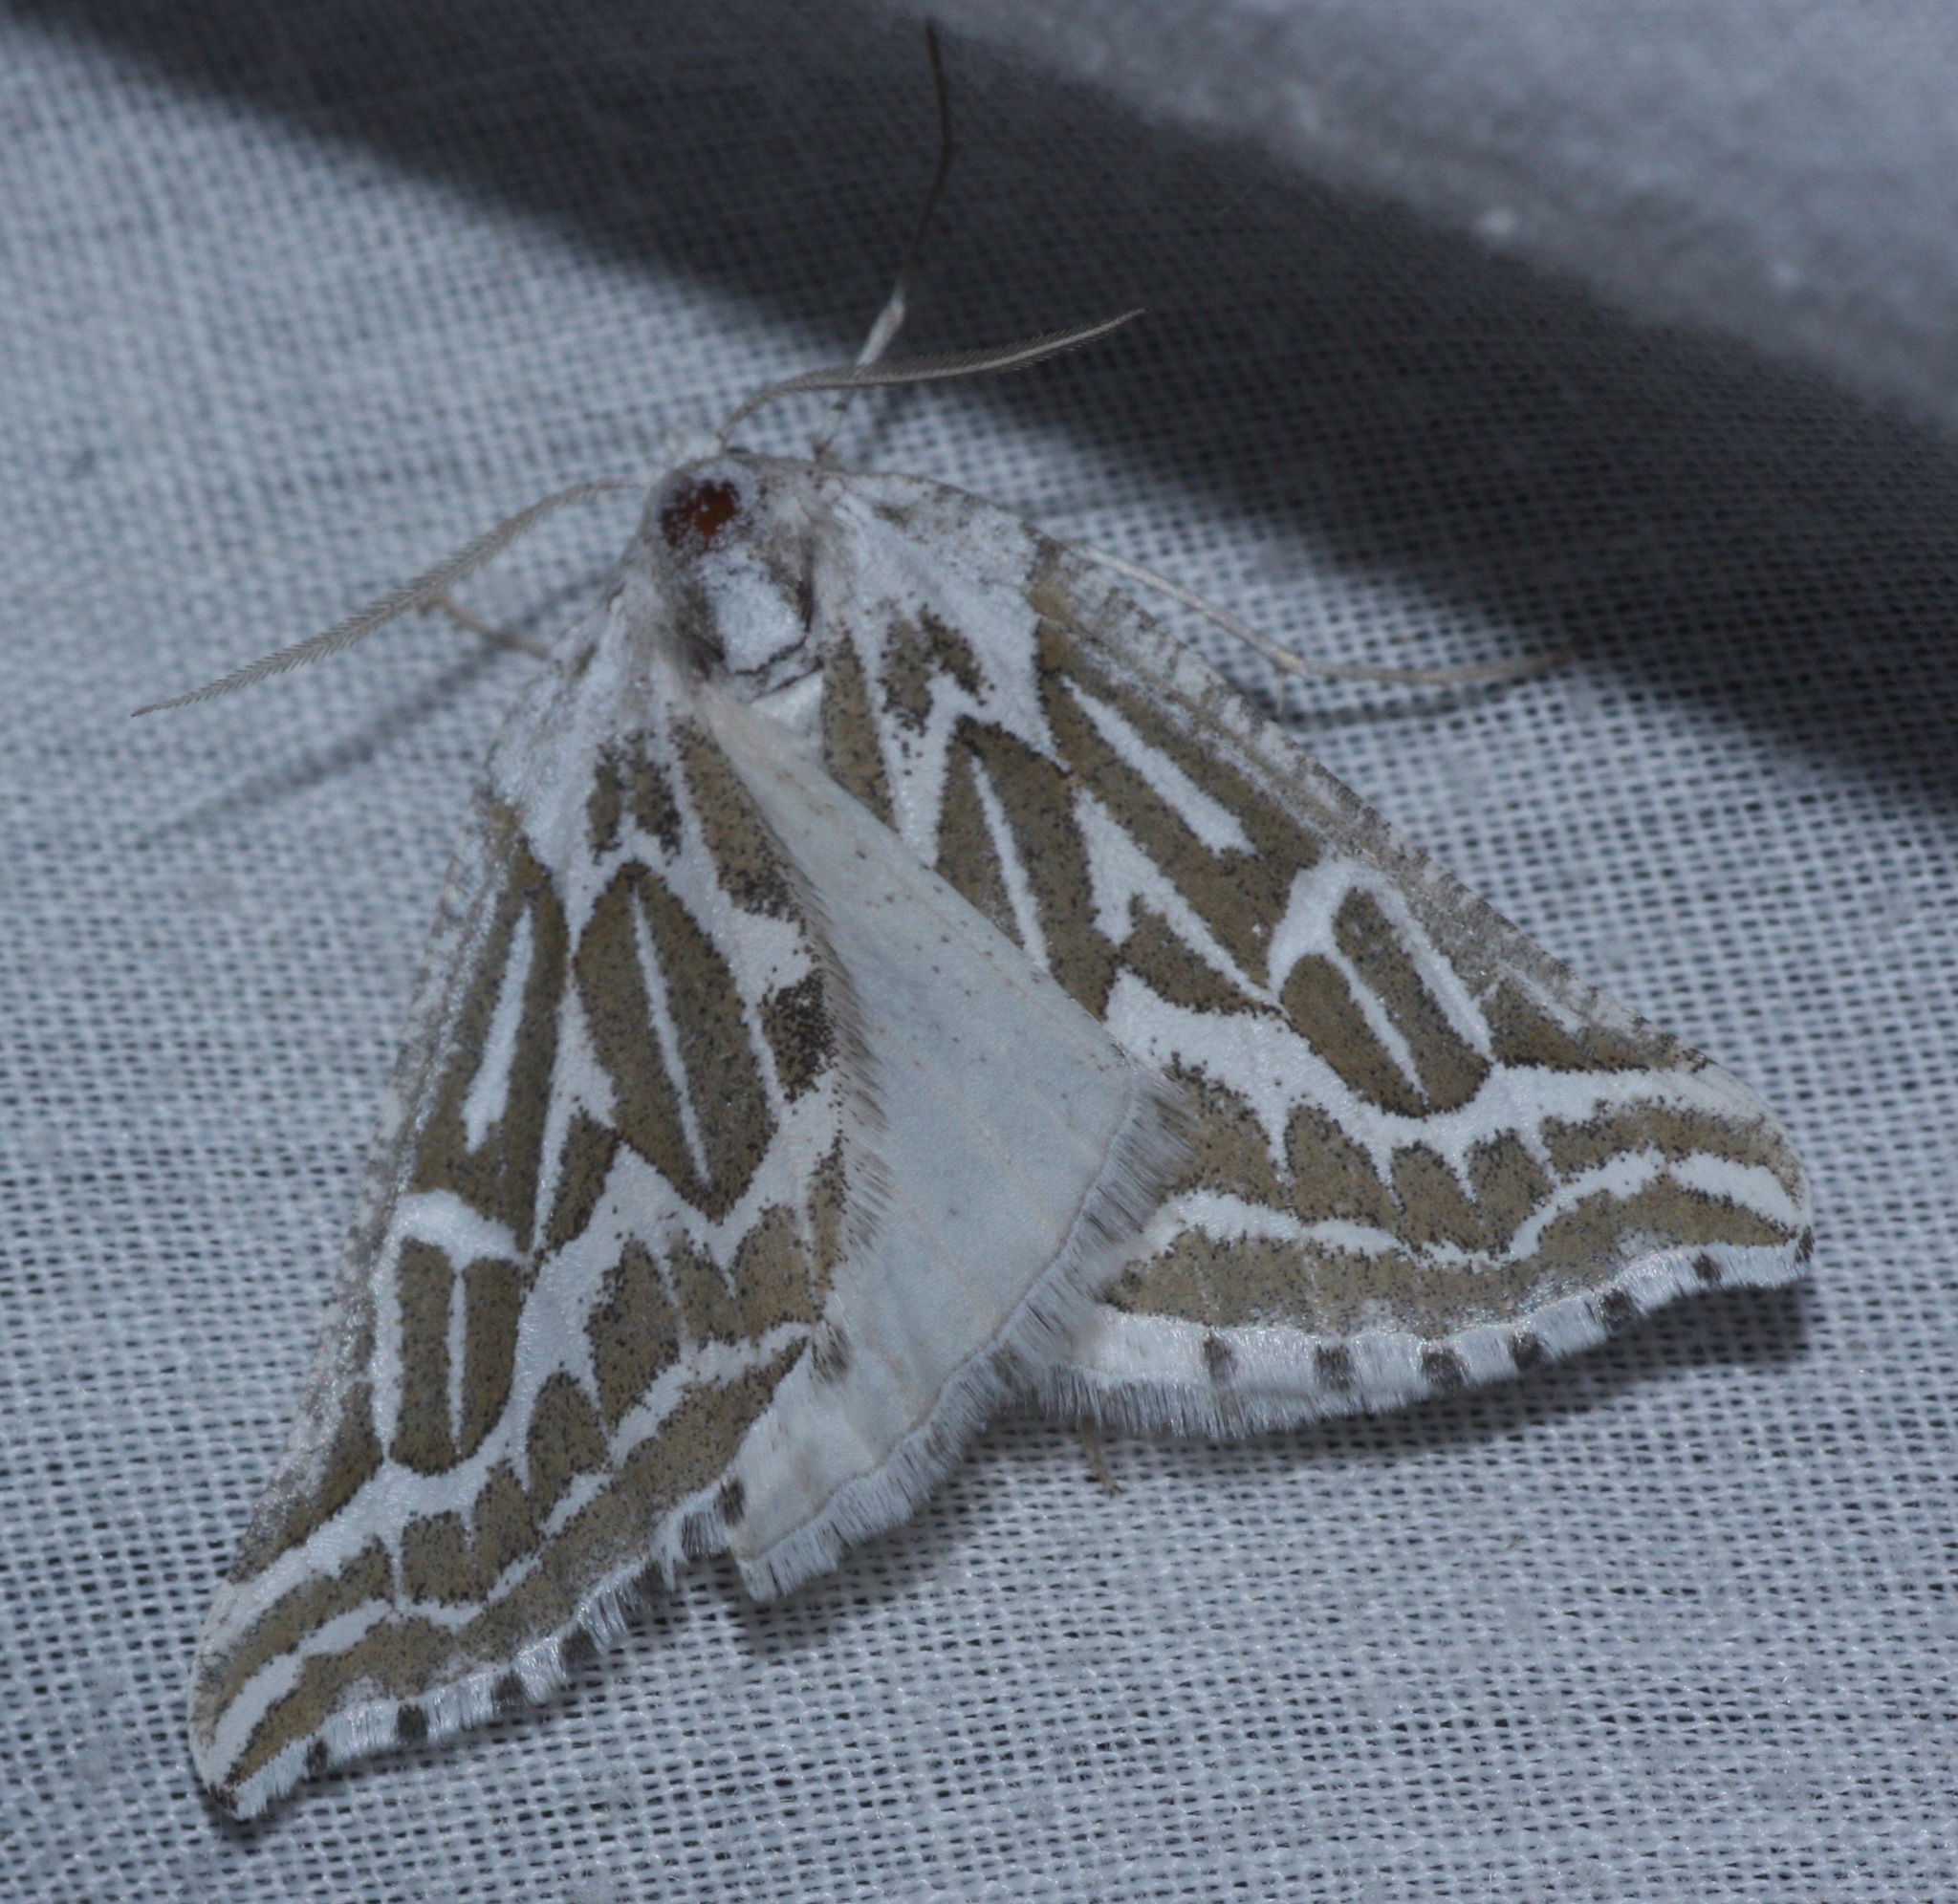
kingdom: Animalia
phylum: Arthropoda
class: Insecta
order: Lepidoptera
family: Geometridae
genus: Plataea
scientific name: Plataea trilinearia
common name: Sagebrush girdle moth
